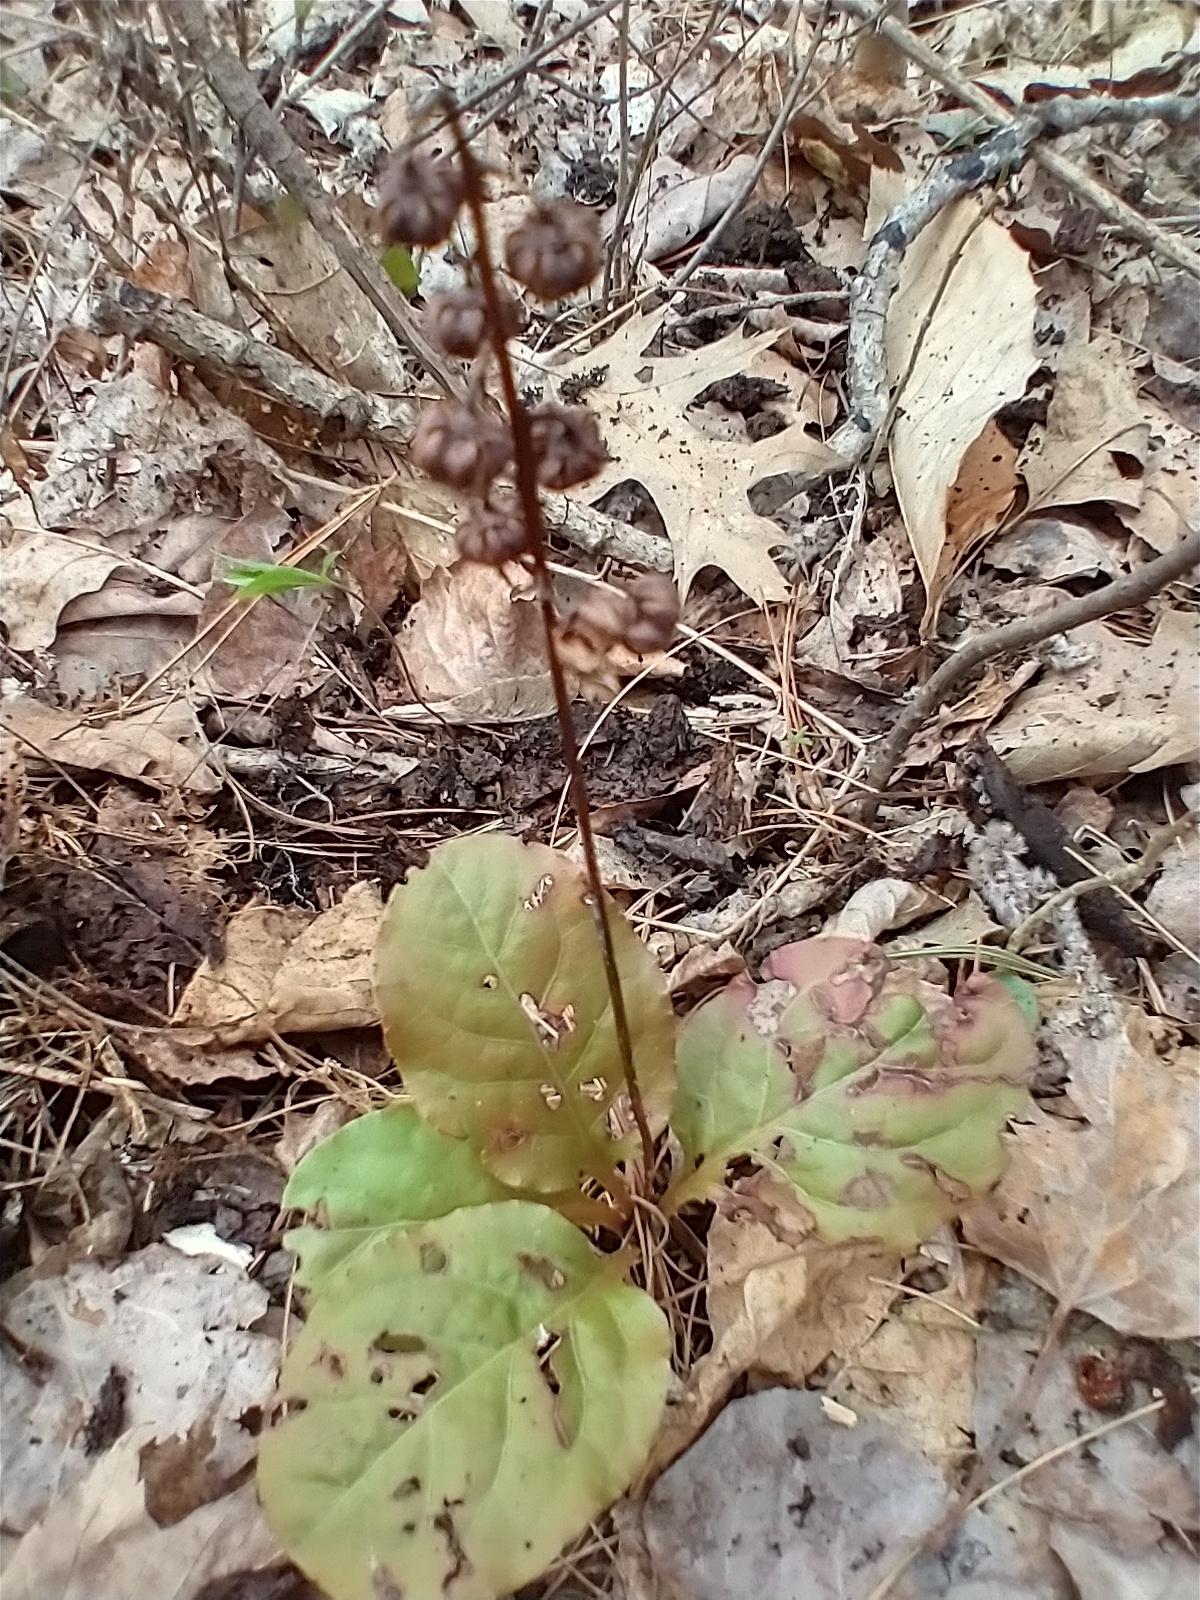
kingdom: Plantae
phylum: Tracheophyta
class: Magnoliopsida
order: Ericales
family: Ericaceae
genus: Pyrola
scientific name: Pyrola elliptica
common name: Shinleaf
